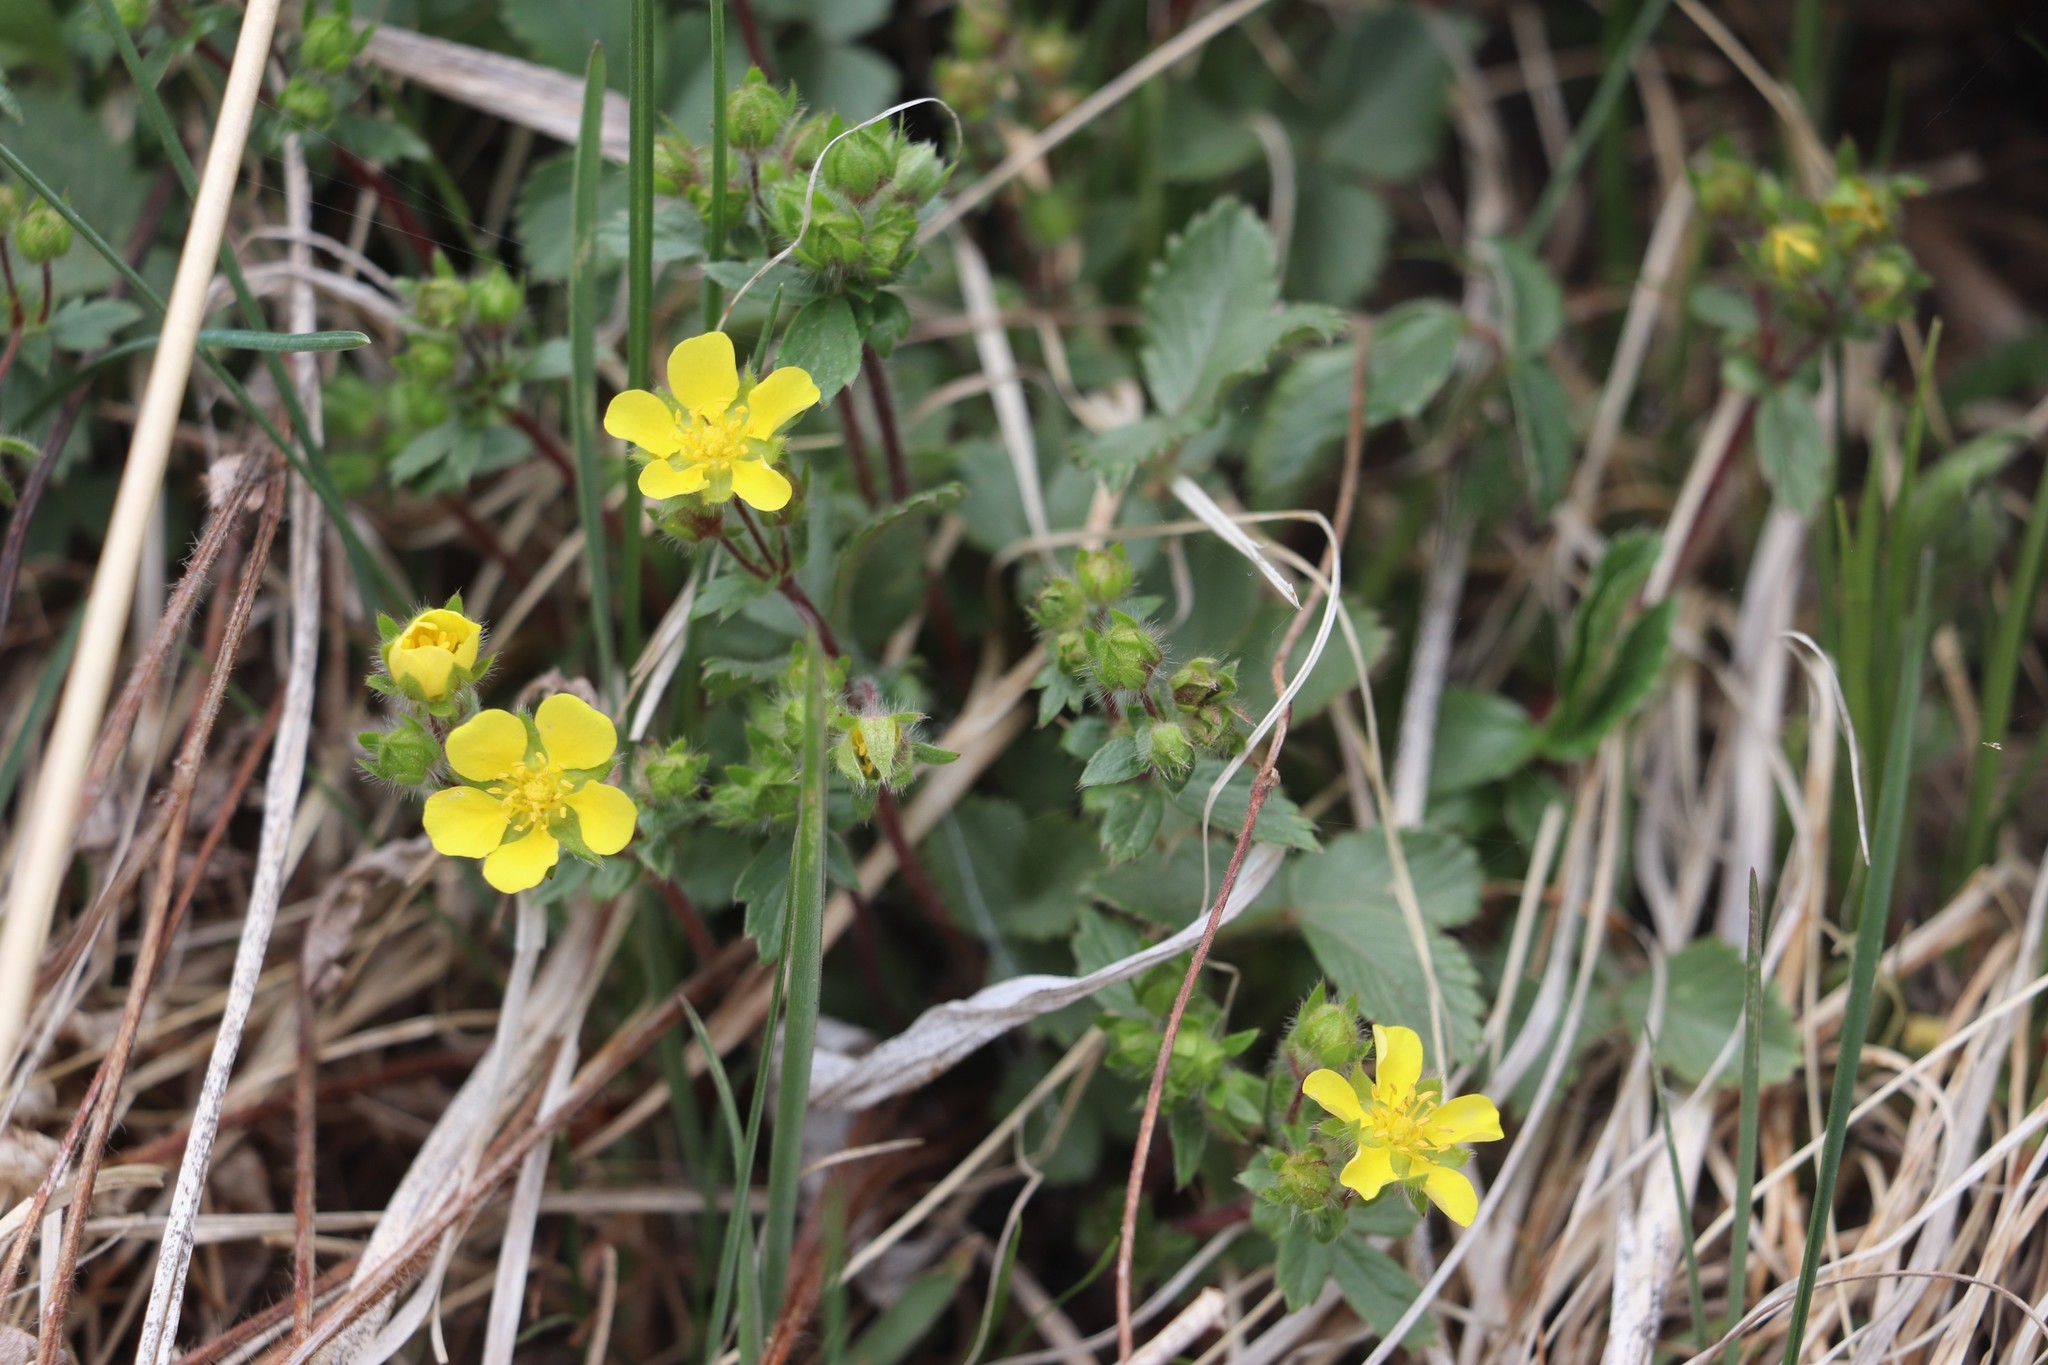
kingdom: Plantae
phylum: Tracheophyta
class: Magnoliopsida
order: Rosales
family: Rosaceae
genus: Potentilla
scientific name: Potentilla fragarioides
